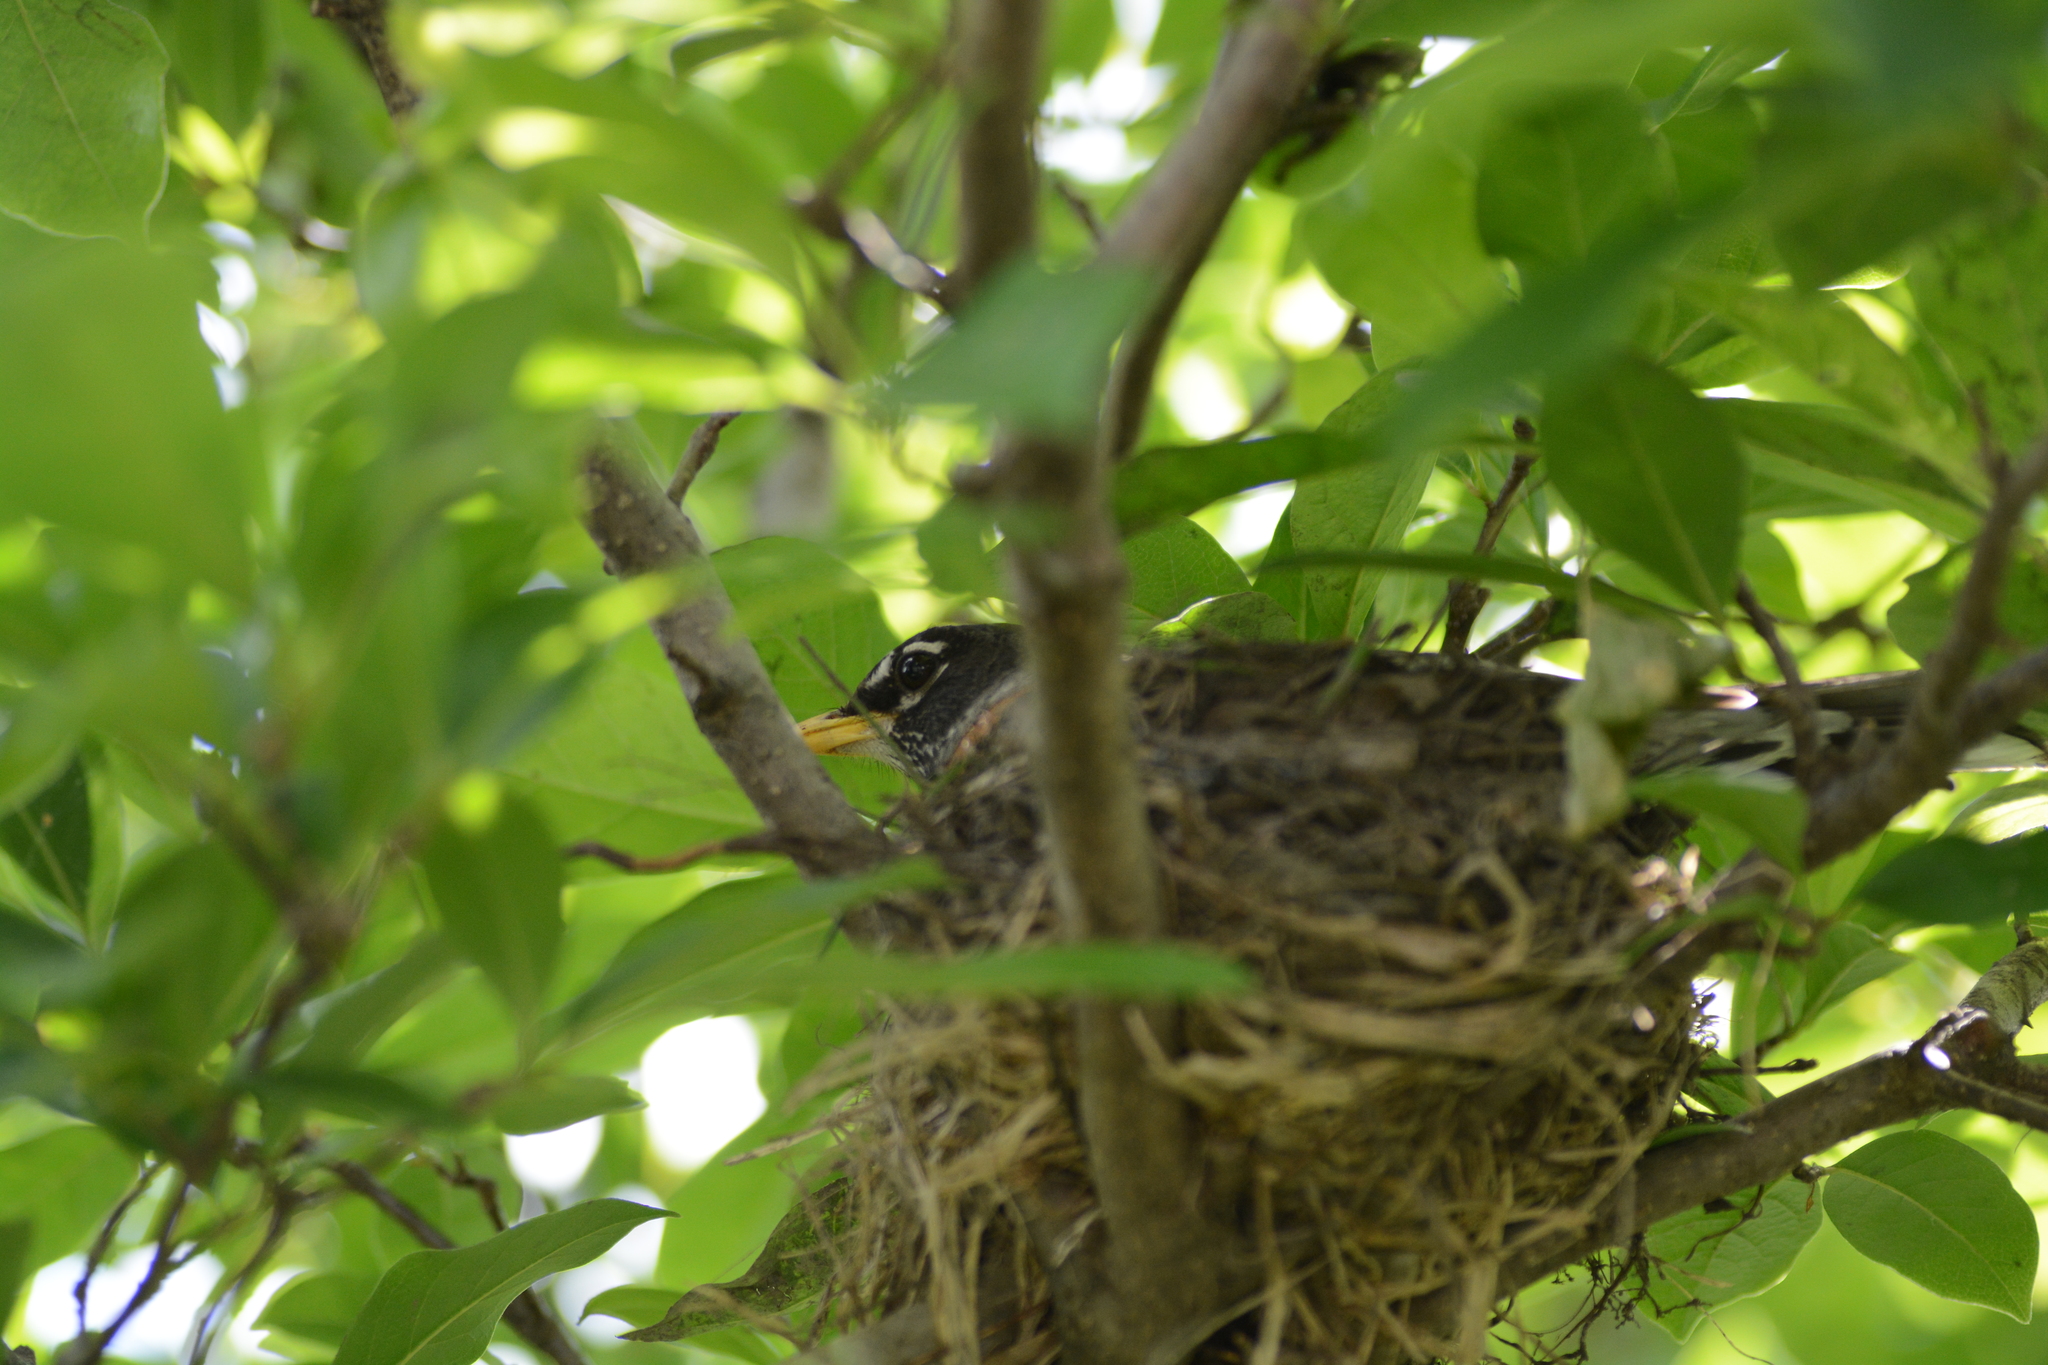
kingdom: Animalia
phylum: Chordata
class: Aves
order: Passeriformes
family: Turdidae
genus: Turdus
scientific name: Turdus migratorius
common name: American robin
